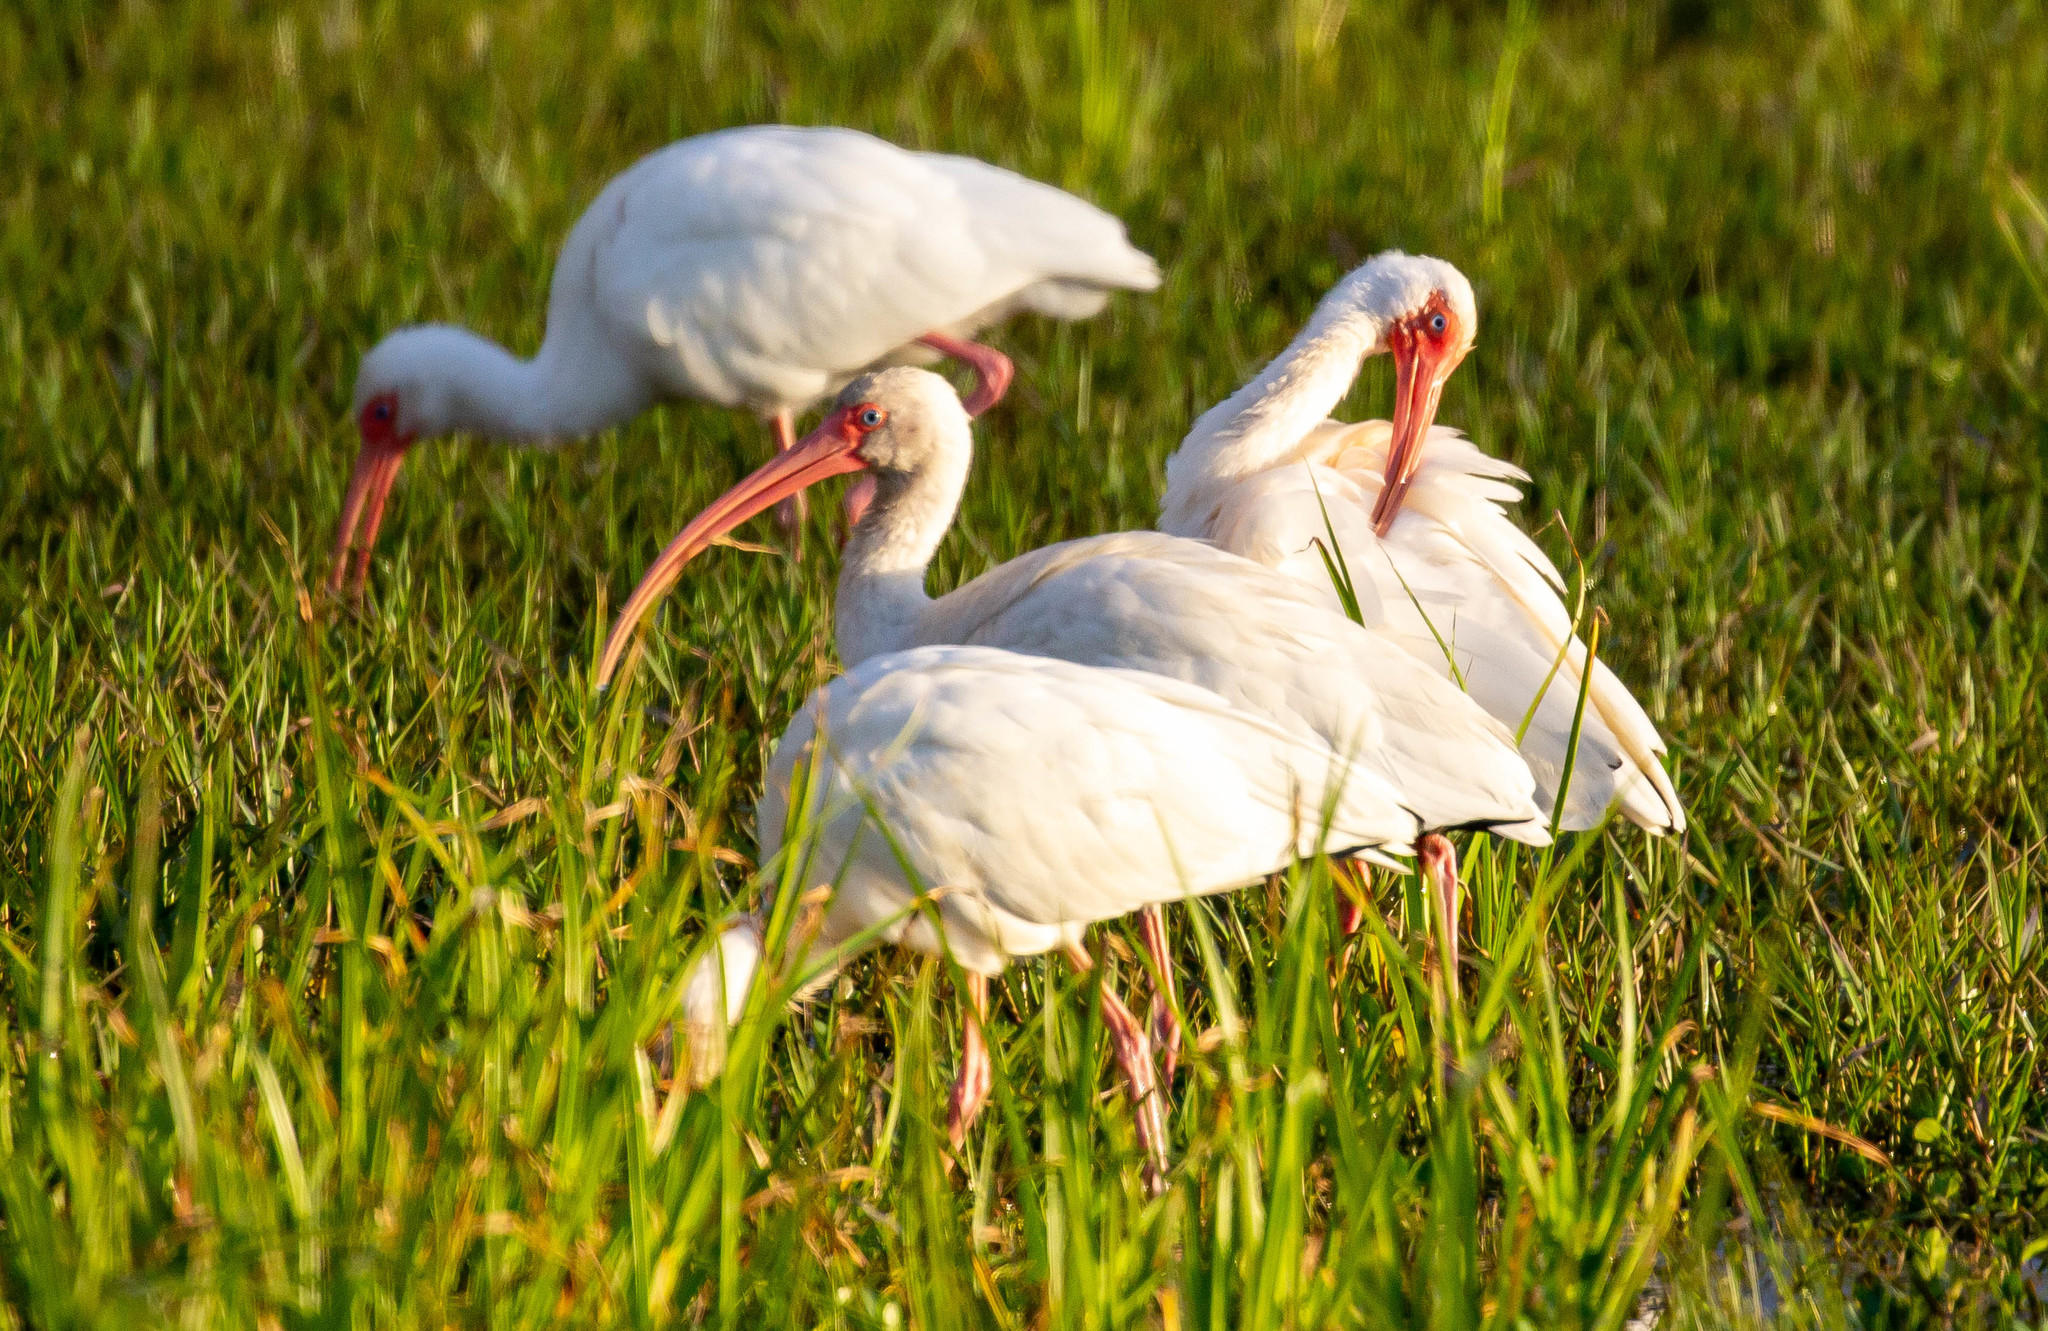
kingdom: Animalia
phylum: Chordata
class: Aves
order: Pelecaniformes
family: Threskiornithidae
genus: Eudocimus
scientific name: Eudocimus albus
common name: White ibis
